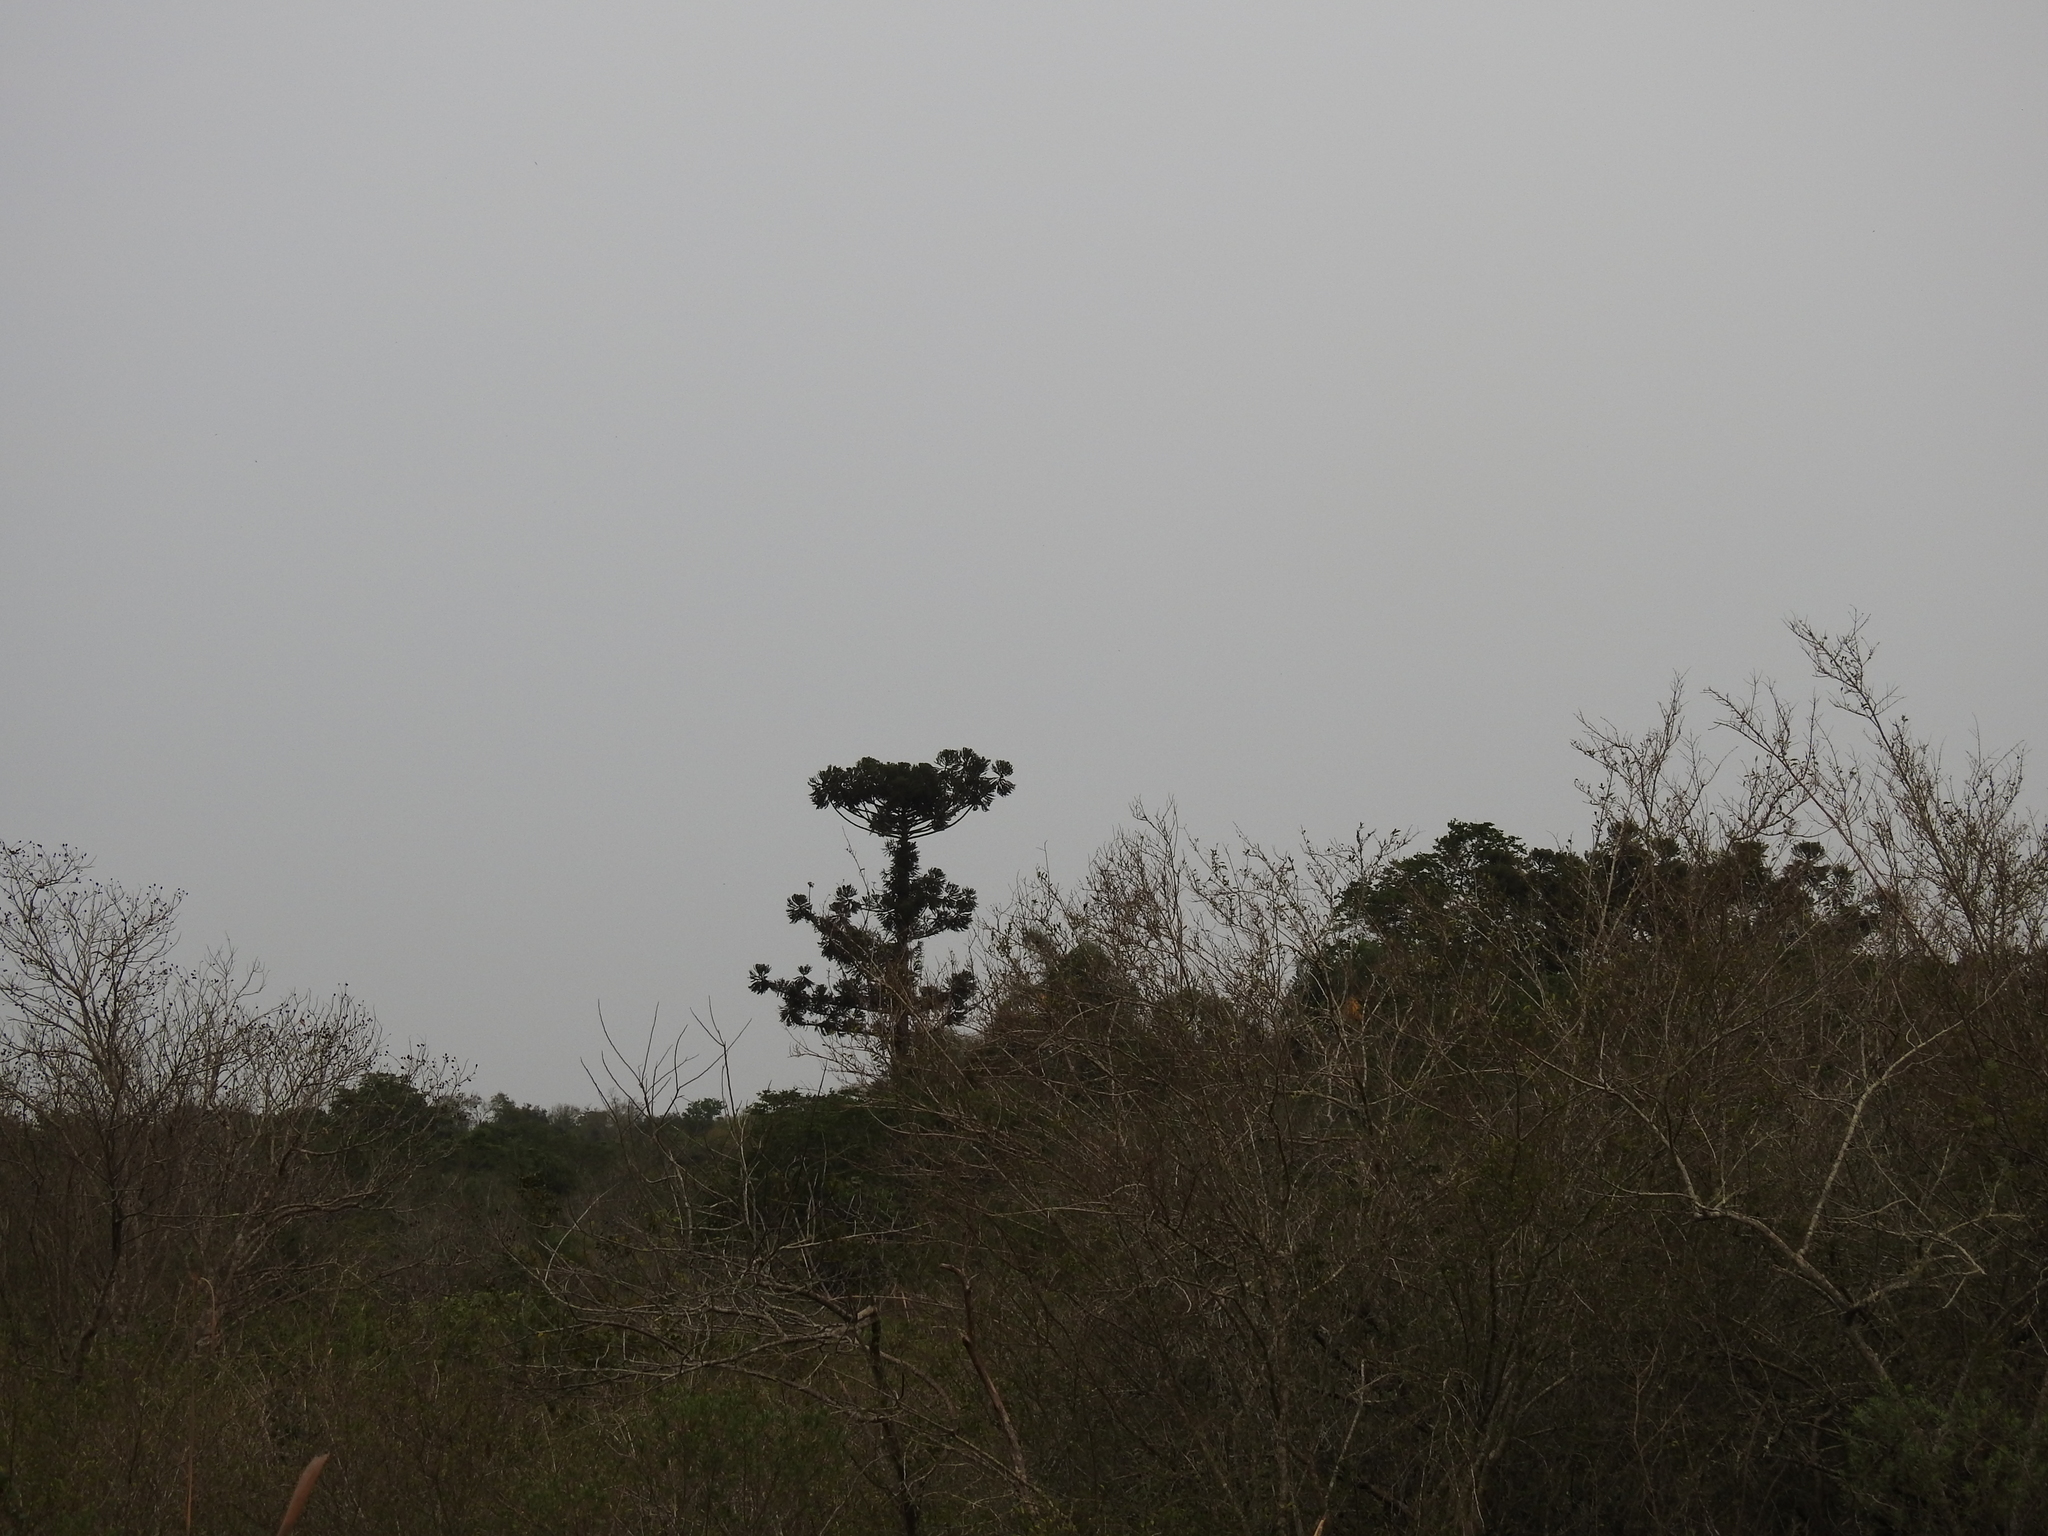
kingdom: Plantae
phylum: Tracheophyta
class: Pinopsida
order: Pinales
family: Araucariaceae
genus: Araucaria
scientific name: Araucaria angustifolia
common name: Candelabra tree
